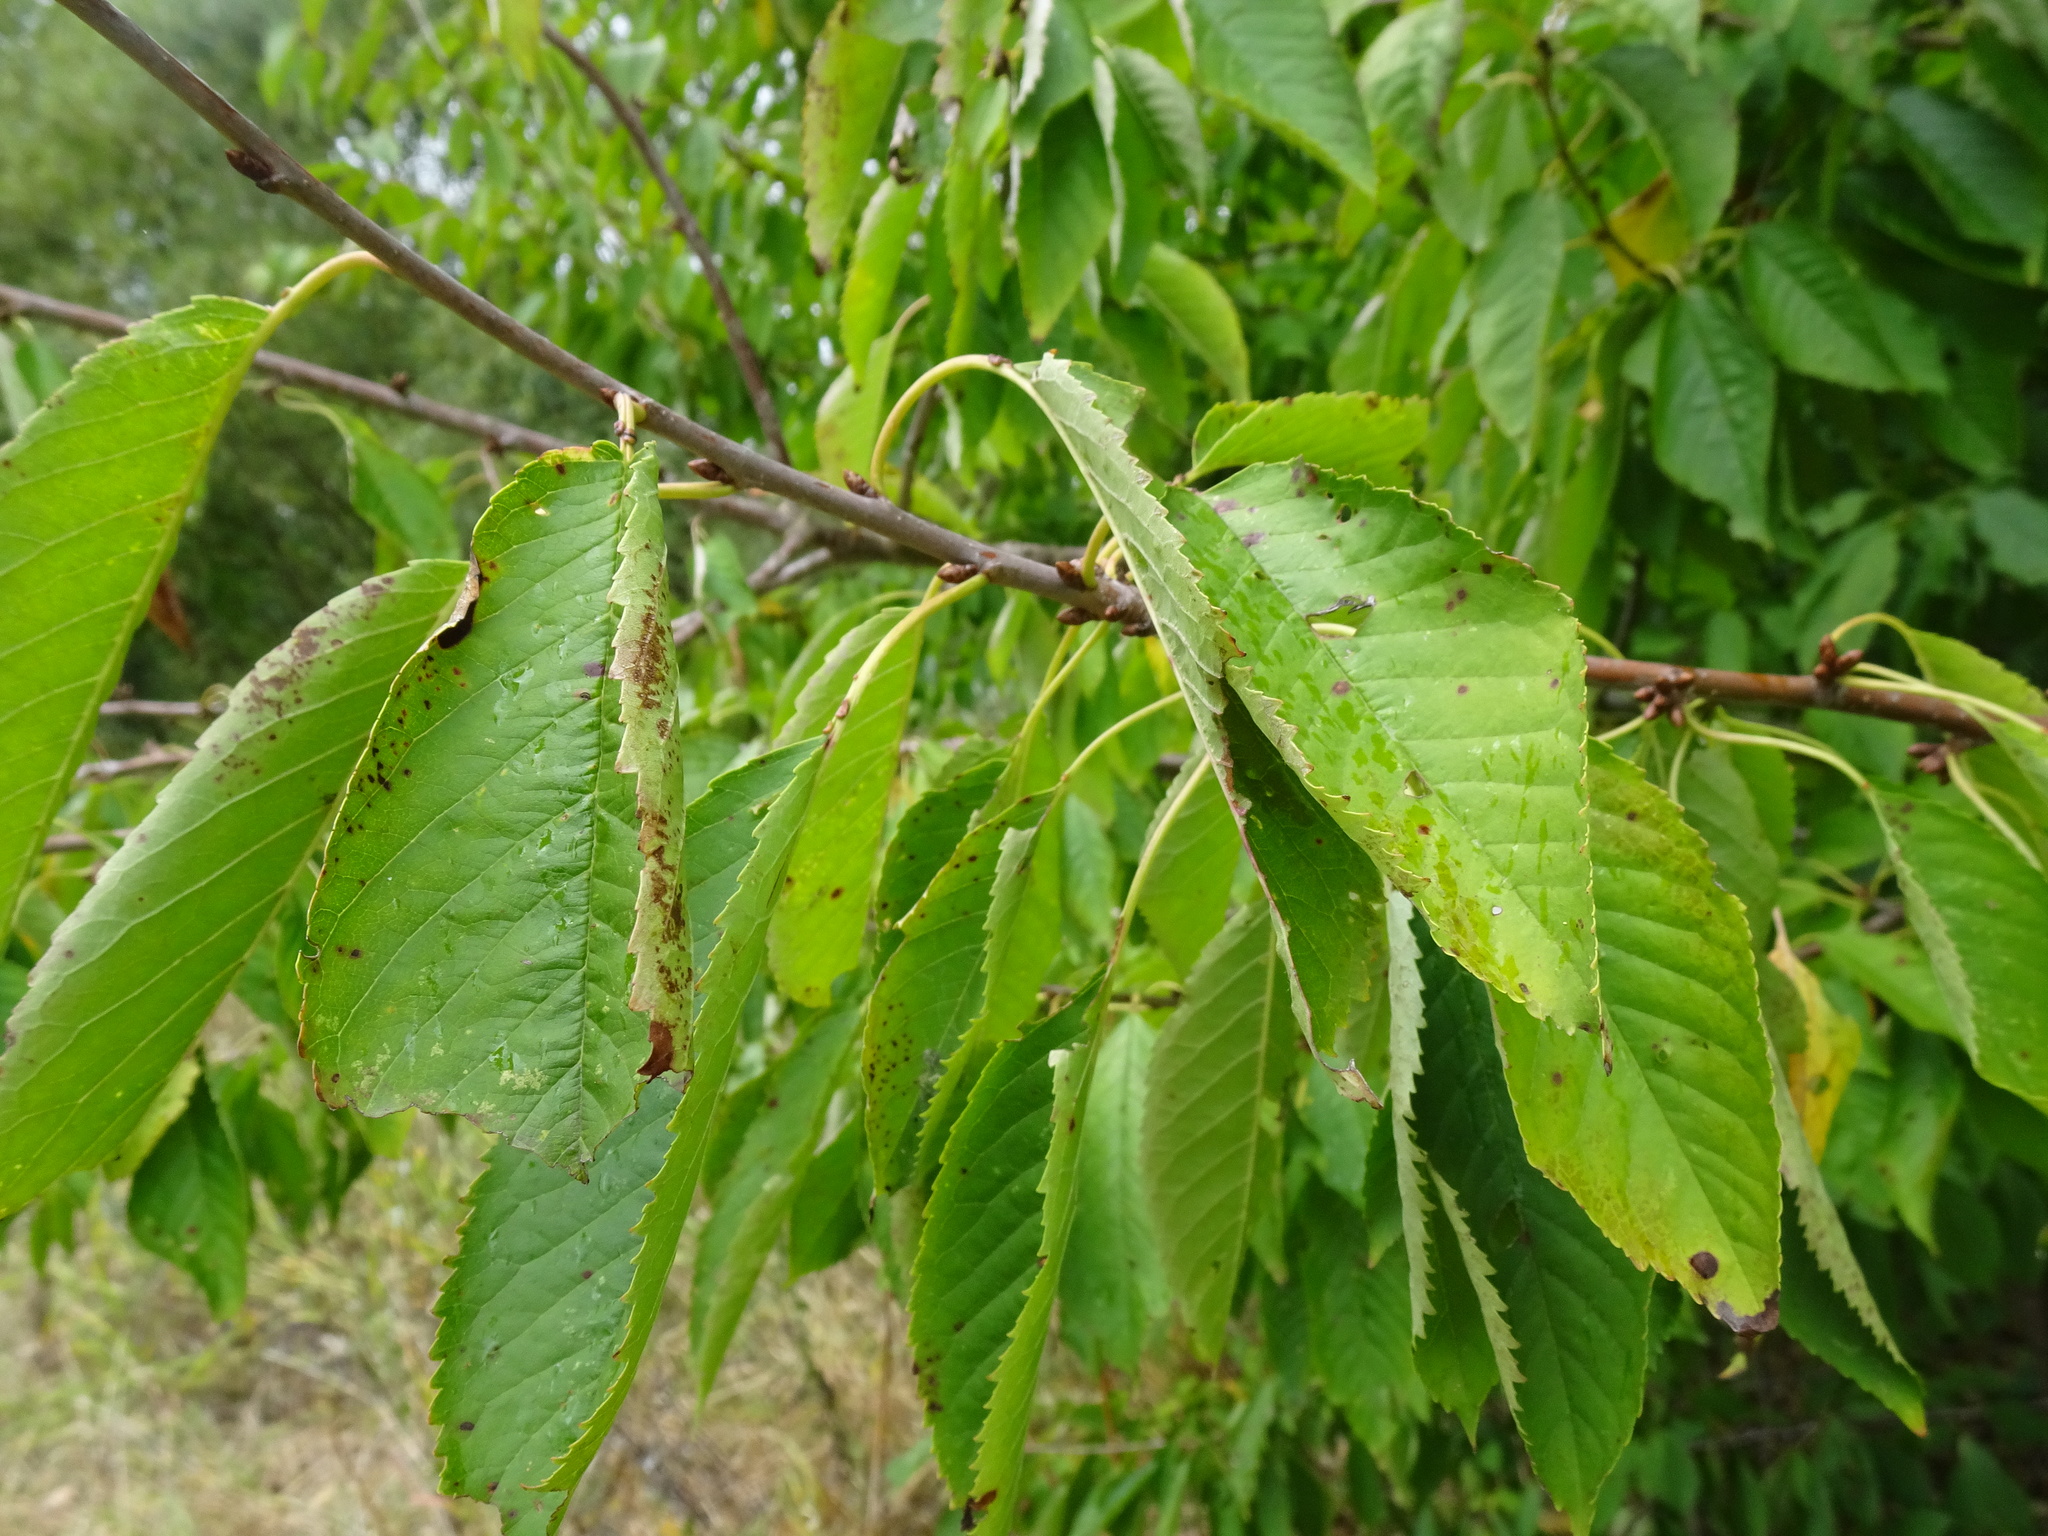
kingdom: Plantae
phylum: Tracheophyta
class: Magnoliopsida
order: Rosales
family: Rosaceae
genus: Prunus
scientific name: Prunus avium
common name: Sweet cherry
